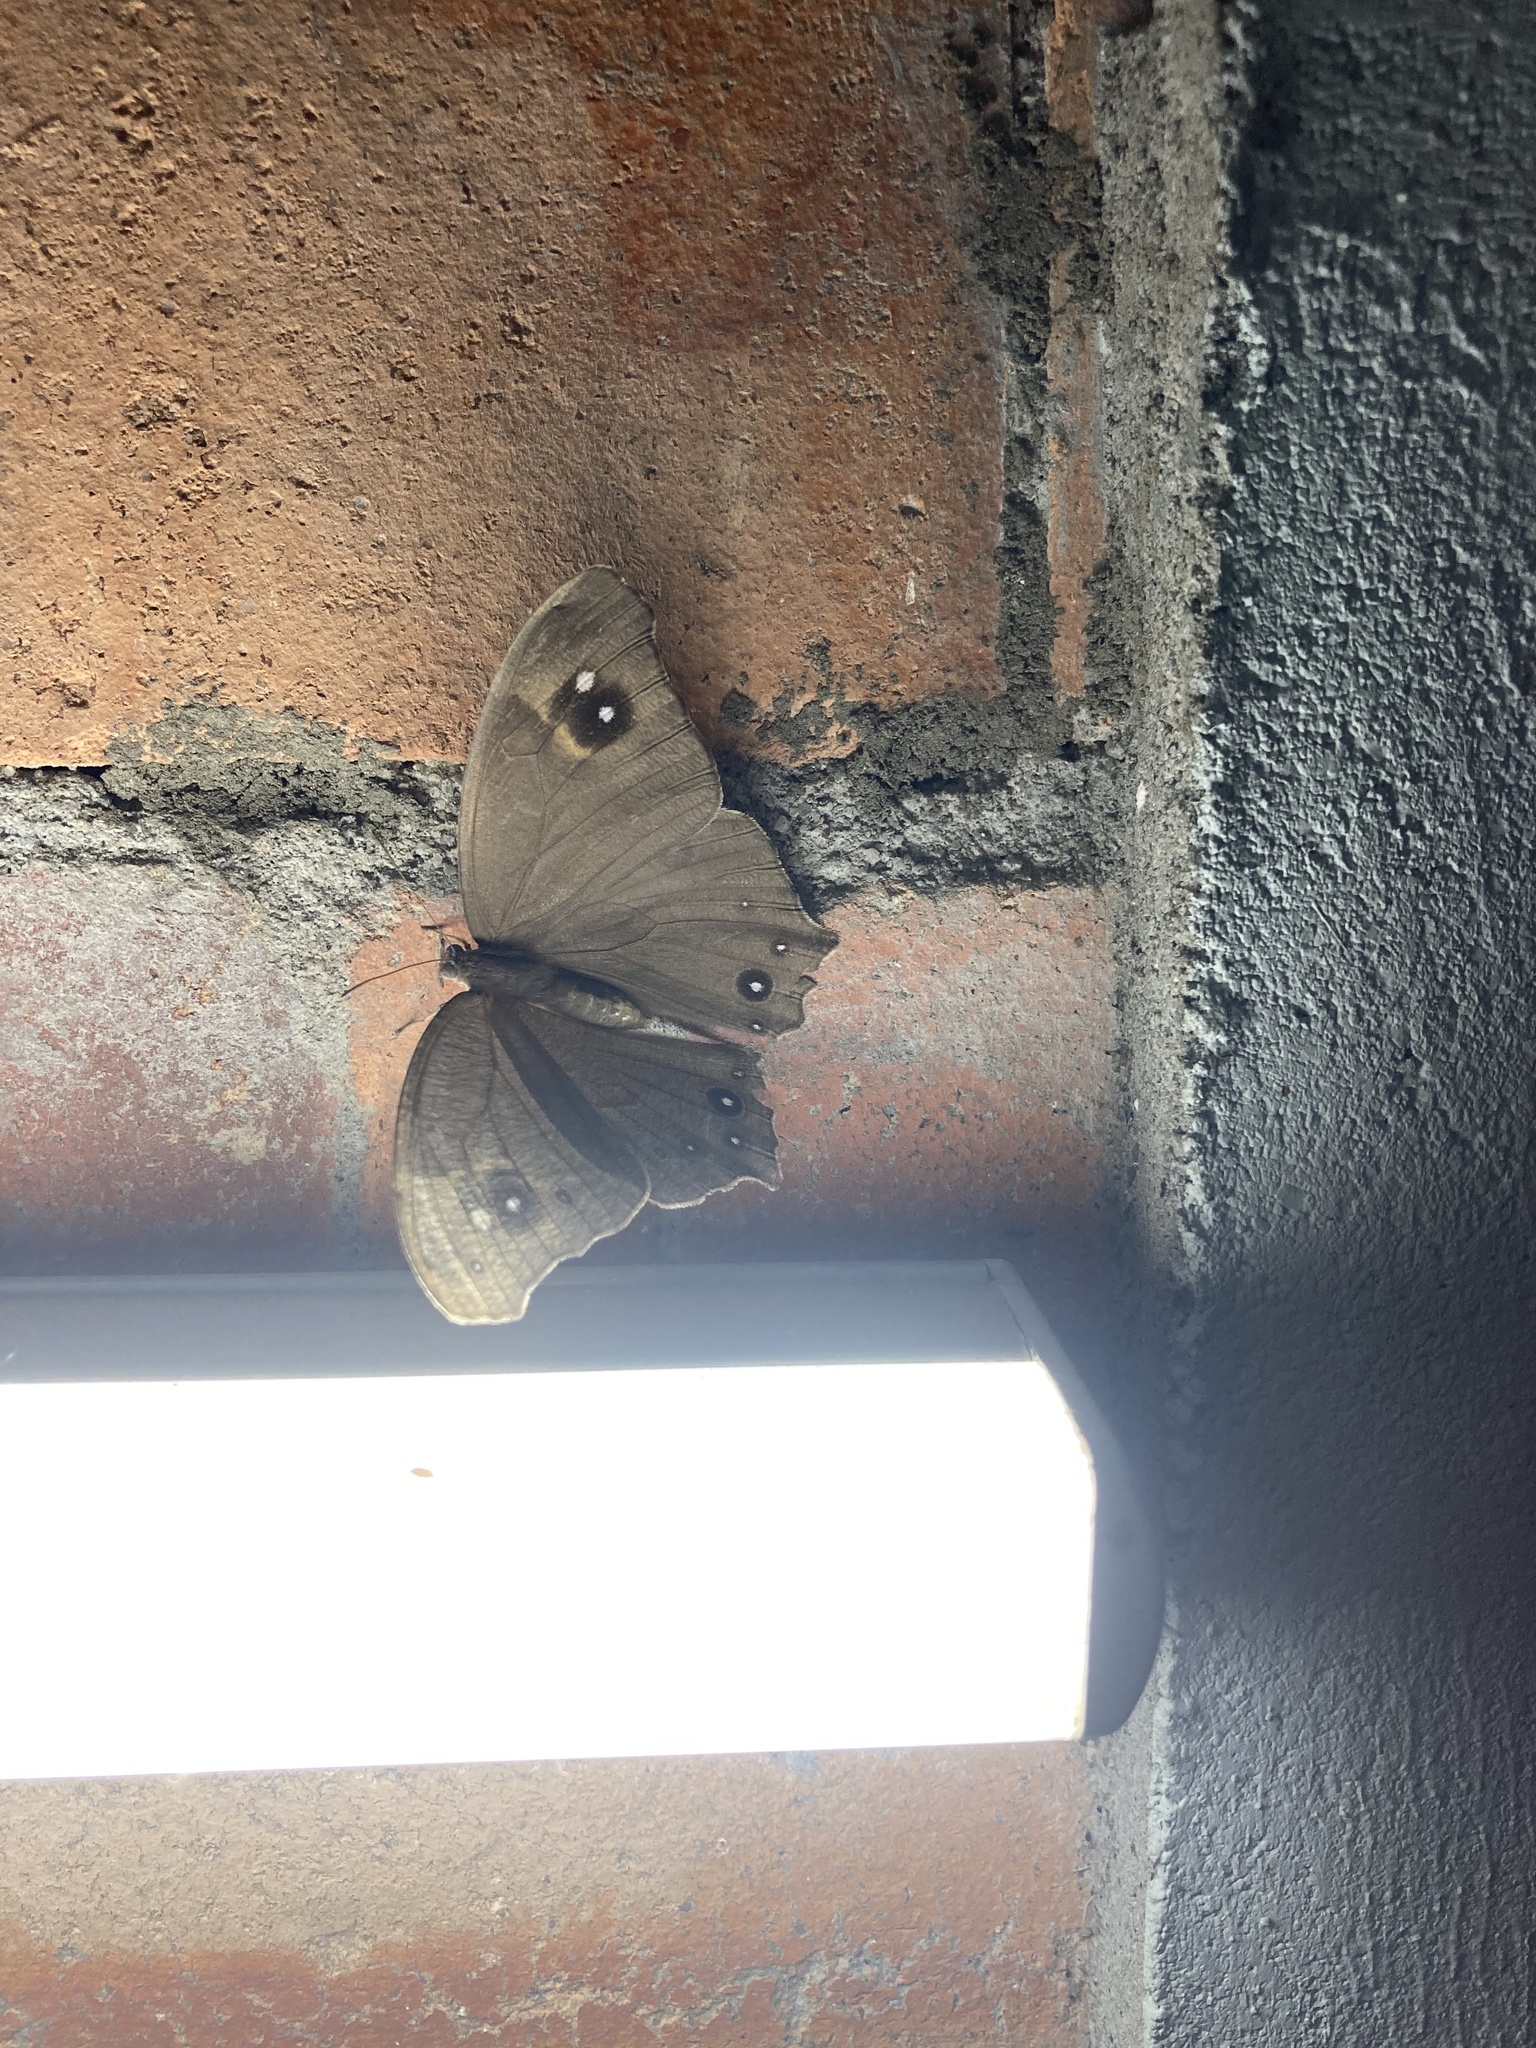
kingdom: Animalia
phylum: Arthropoda
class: Insecta
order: Lepidoptera
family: Nymphalidae
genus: Melanitis
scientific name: Melanitis leda
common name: Twilight brown
